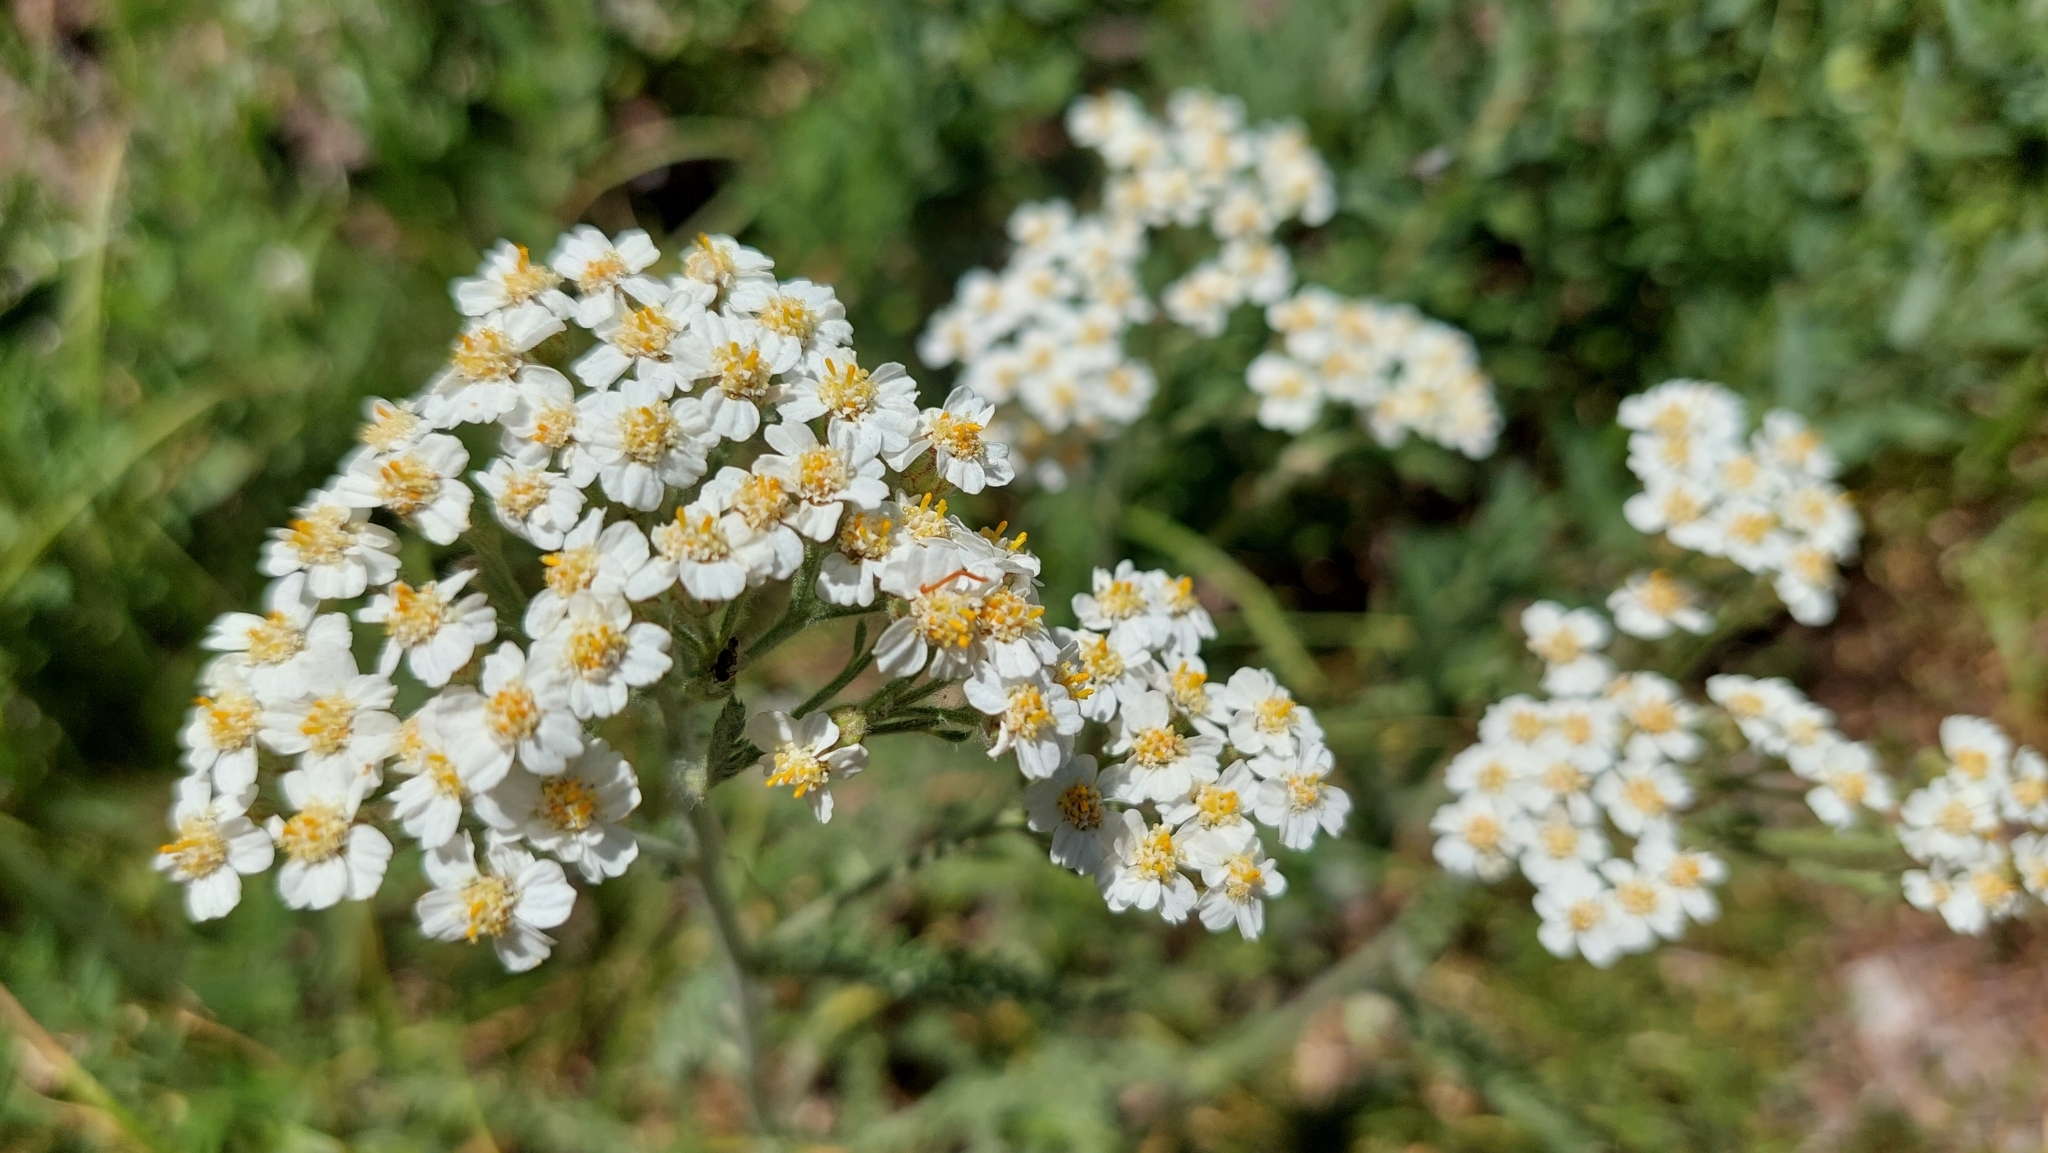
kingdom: Plantae
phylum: Tracheophyta
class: Magnoliopsida
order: Asterales
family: Asteraceae
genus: Achillea
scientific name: Achillea millefolium
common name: Yarrow
